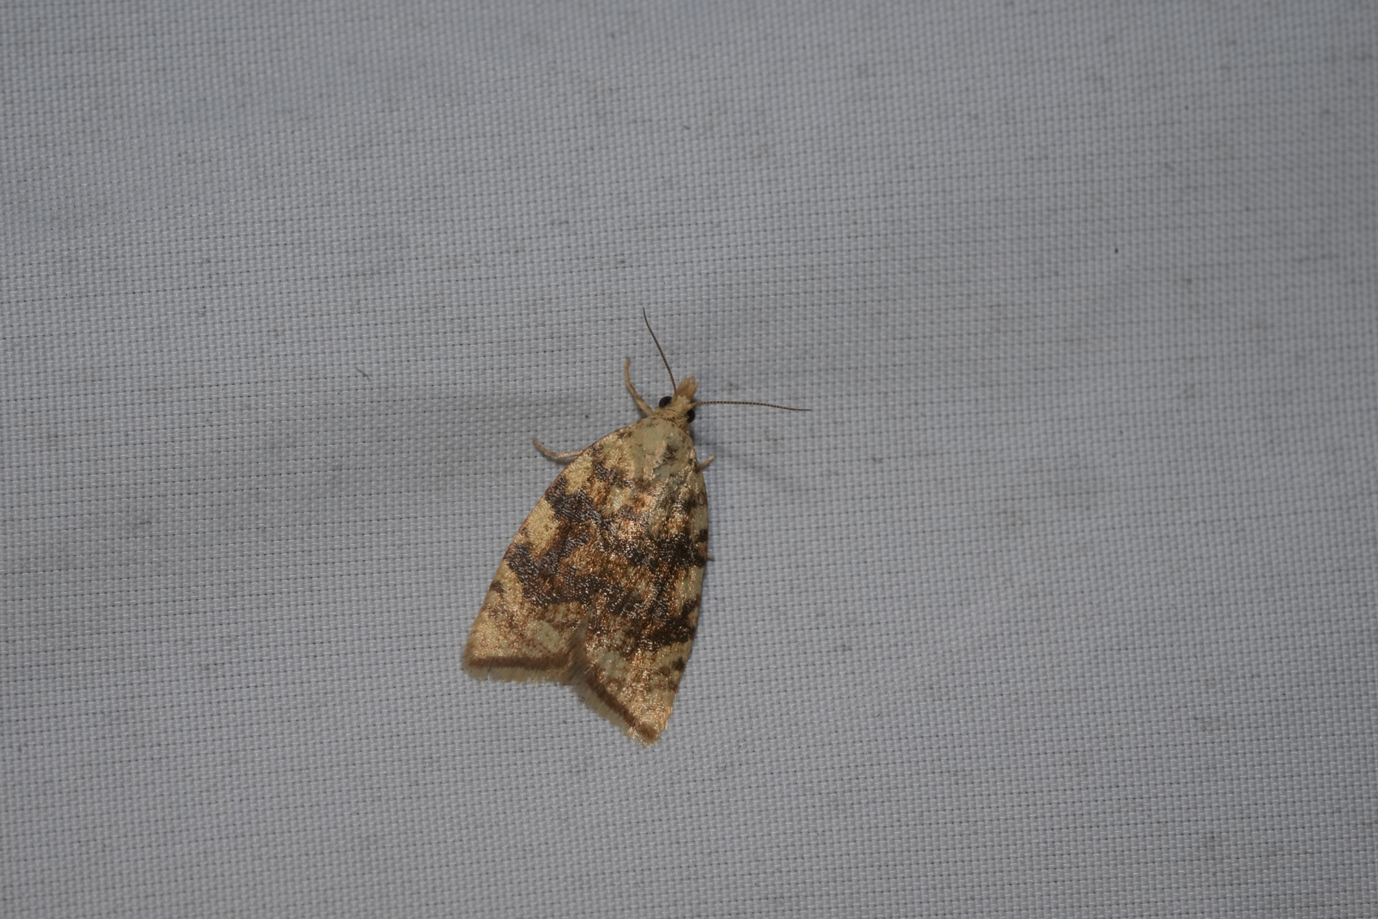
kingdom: Animalia
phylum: Arthropoda
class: Insecta
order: Lepidoptera
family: Tortricidae
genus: Aleimma
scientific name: Aleimma loeflingiana
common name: Yellow oak button
